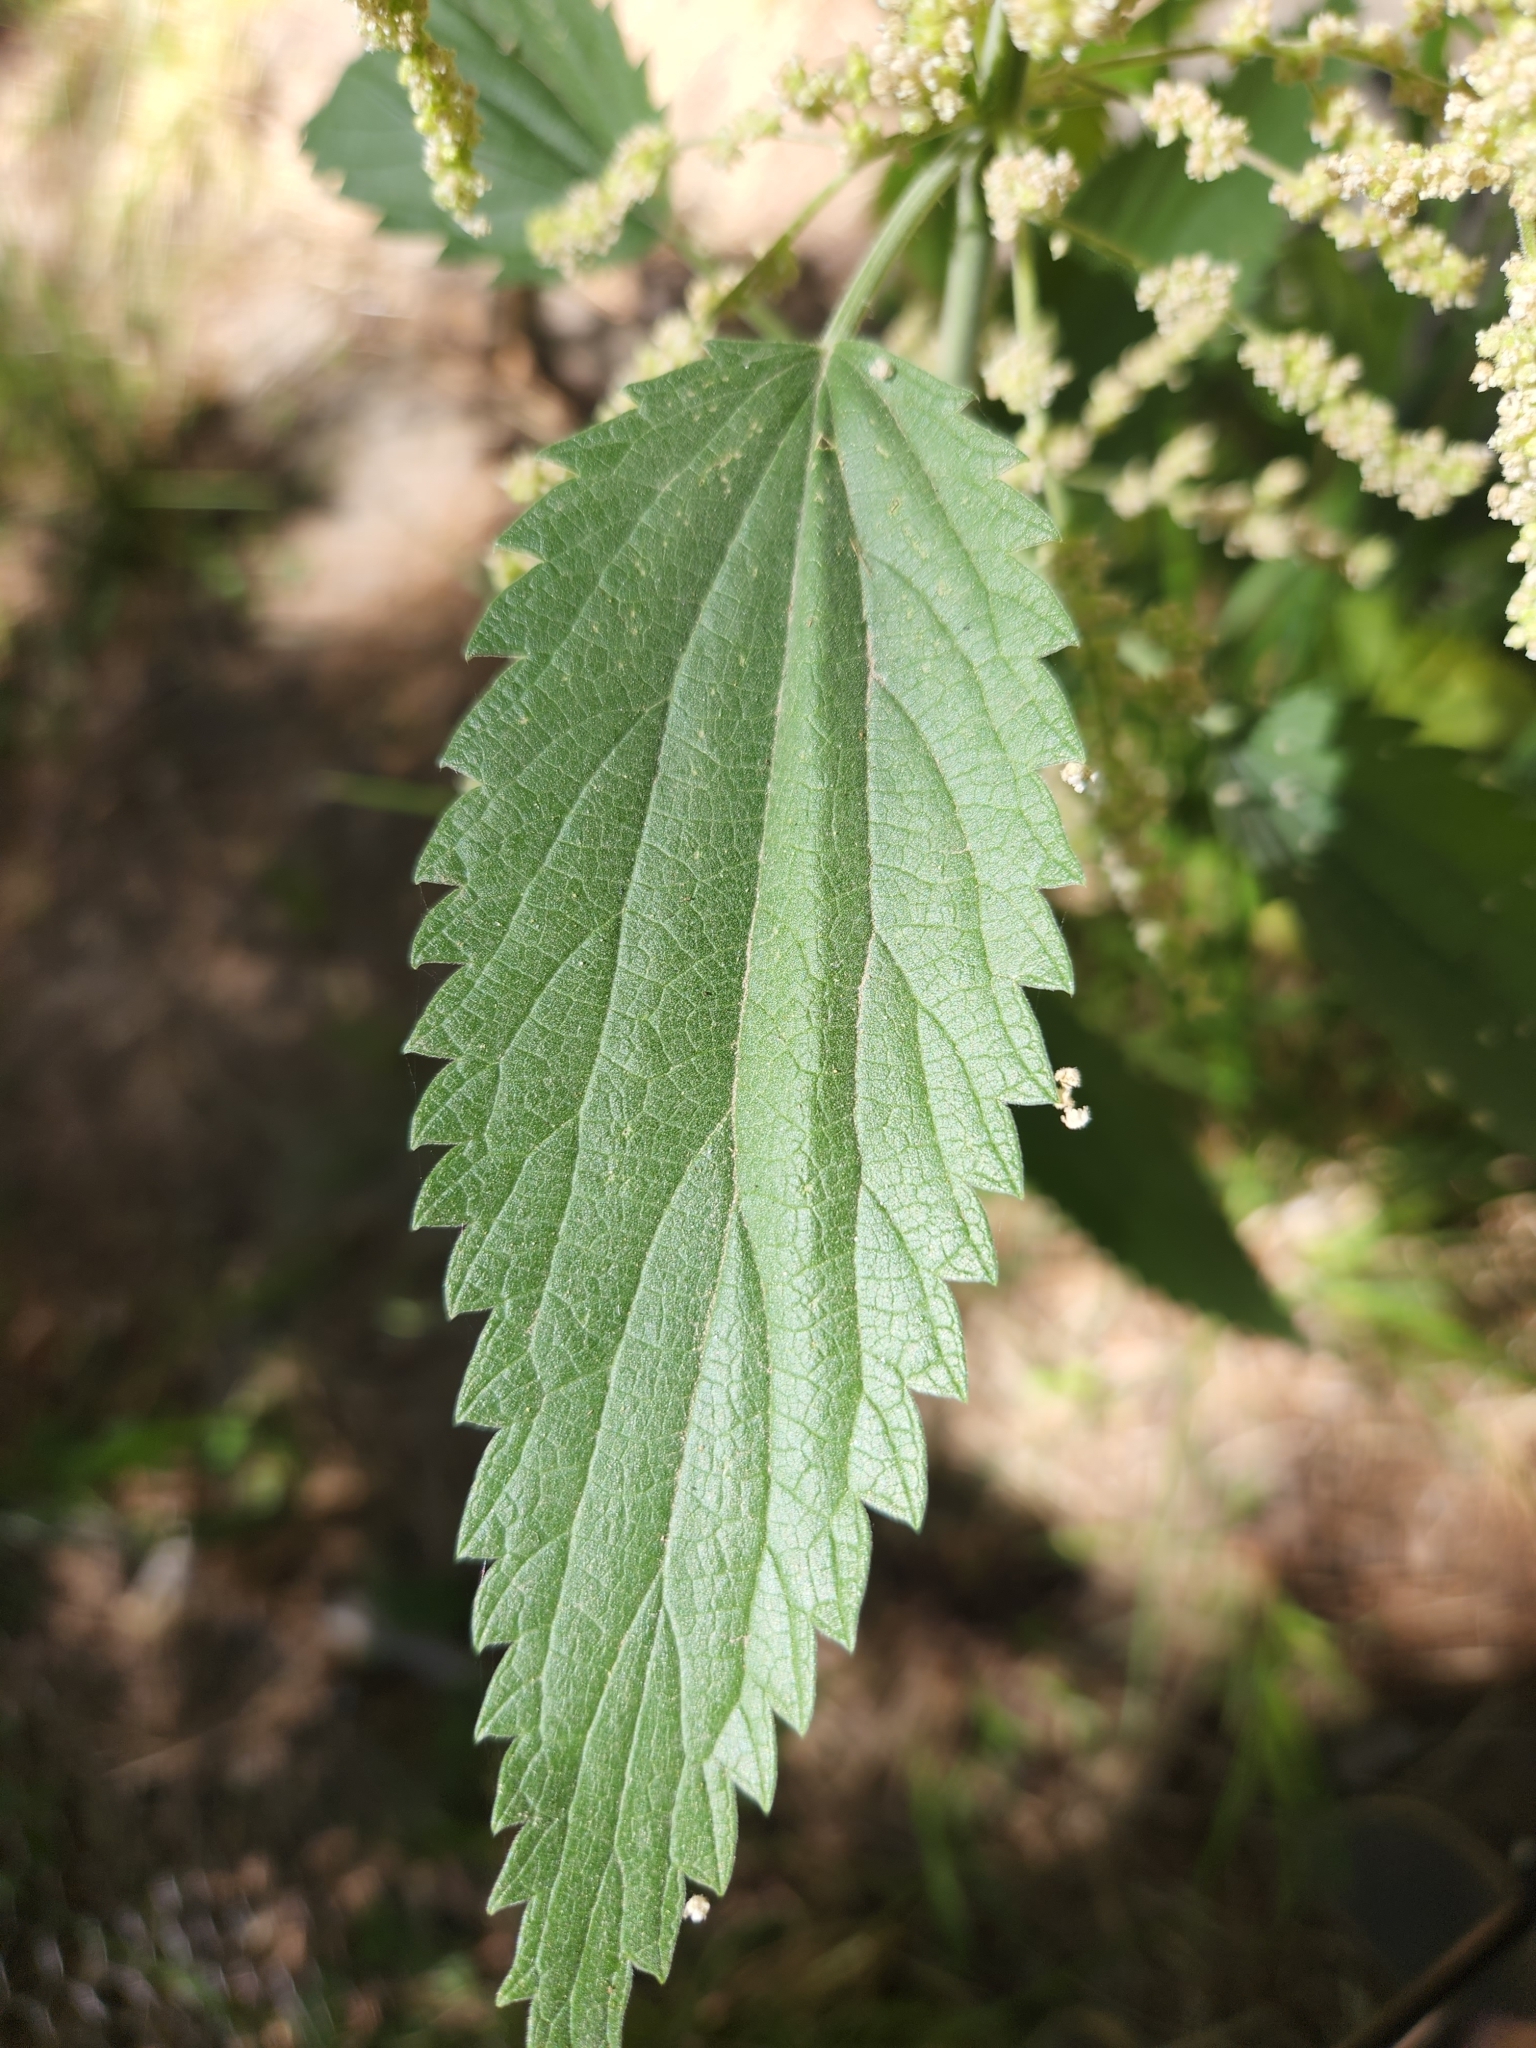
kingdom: Plantae
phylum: Tracheophyta
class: Magnoliopsida
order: Rosales
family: Urticaceae
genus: Urtica
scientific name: Urtica dioica
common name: Common nettle
